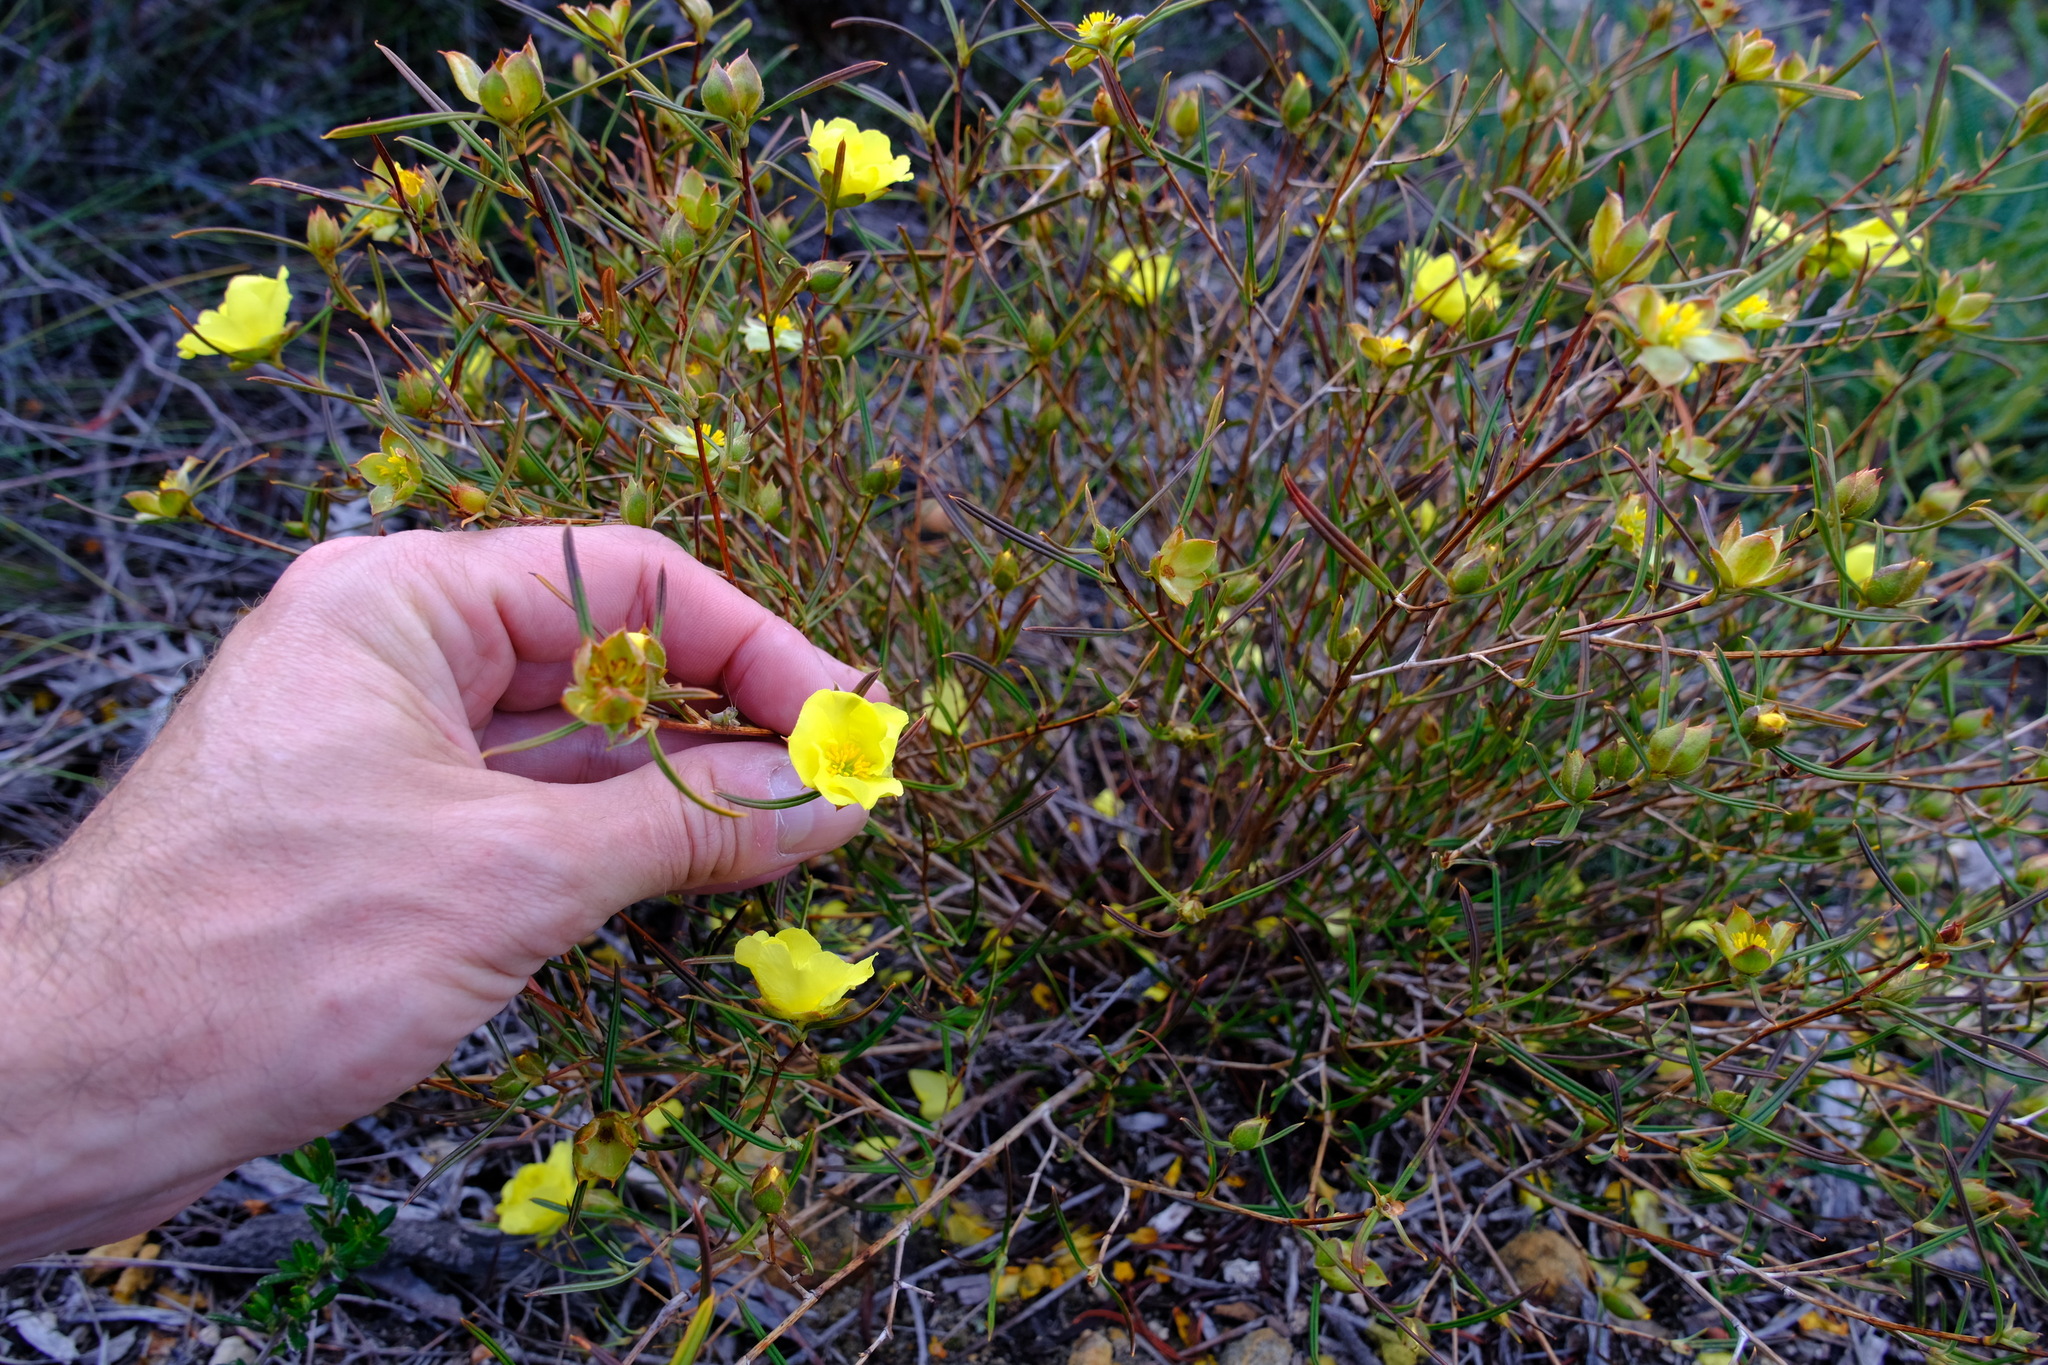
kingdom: Plantae
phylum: Tracheophyta
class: Magnoliopsida
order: Dilleniales
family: Dilleniaceae
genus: Hibbertia
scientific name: Hibbertia striata
